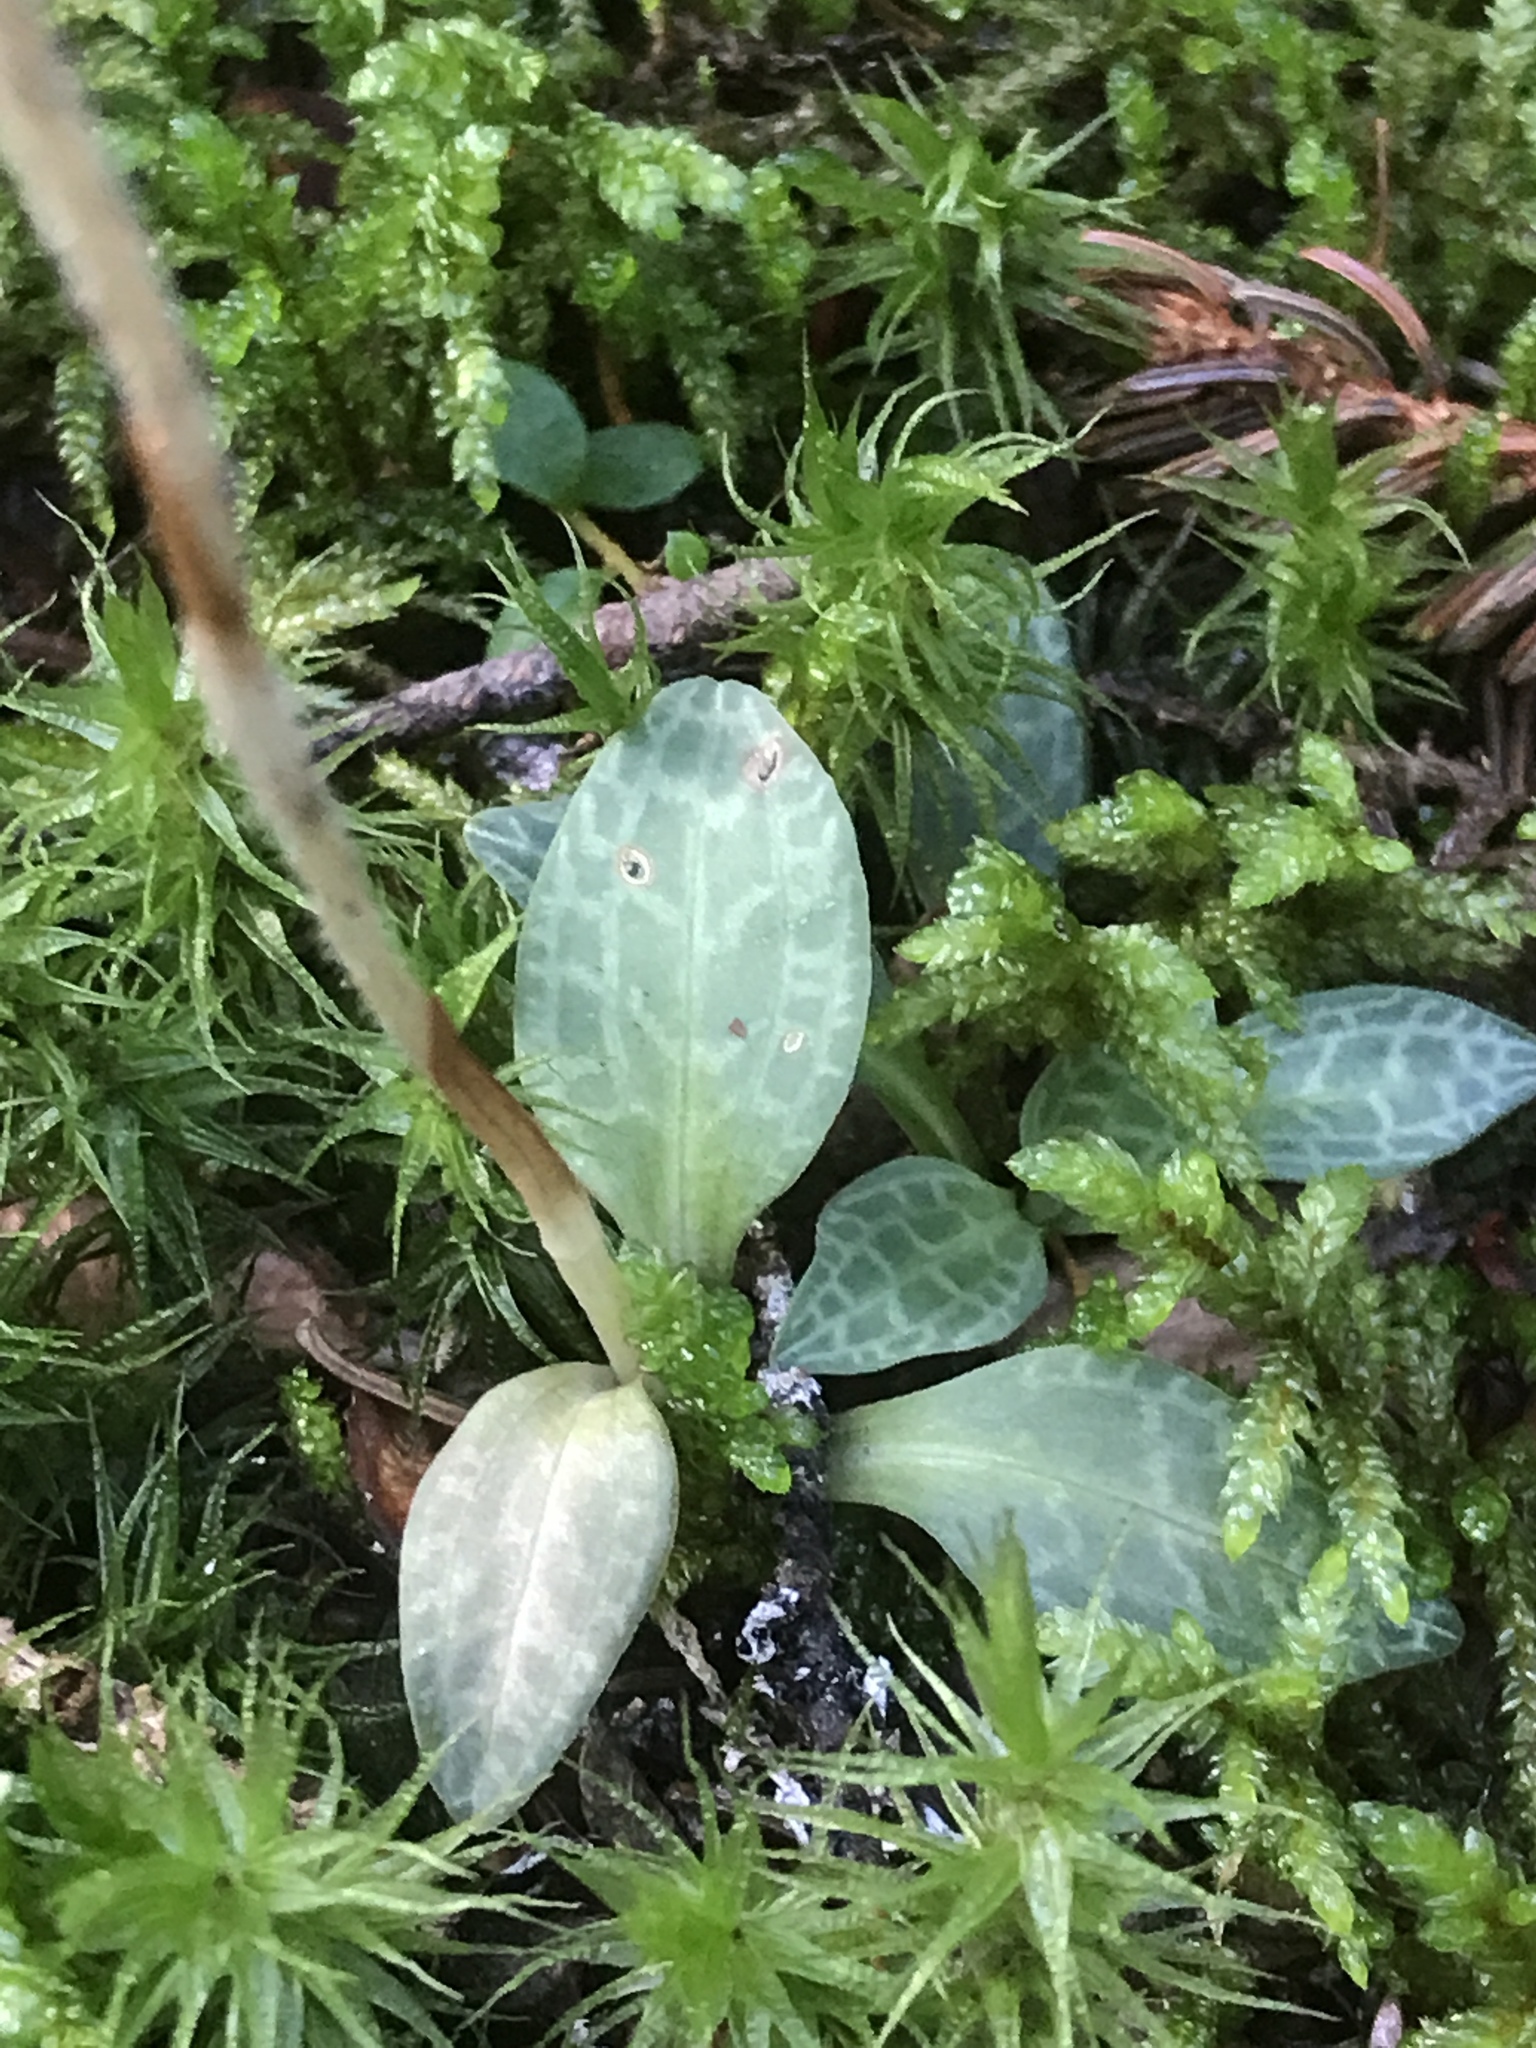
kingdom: Plantae
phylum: Tracheophyta
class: Liliopsida
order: Asparagales
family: Orchidaceae
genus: Goodyera
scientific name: Goodyera repens
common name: Creeping lady's-tresses
